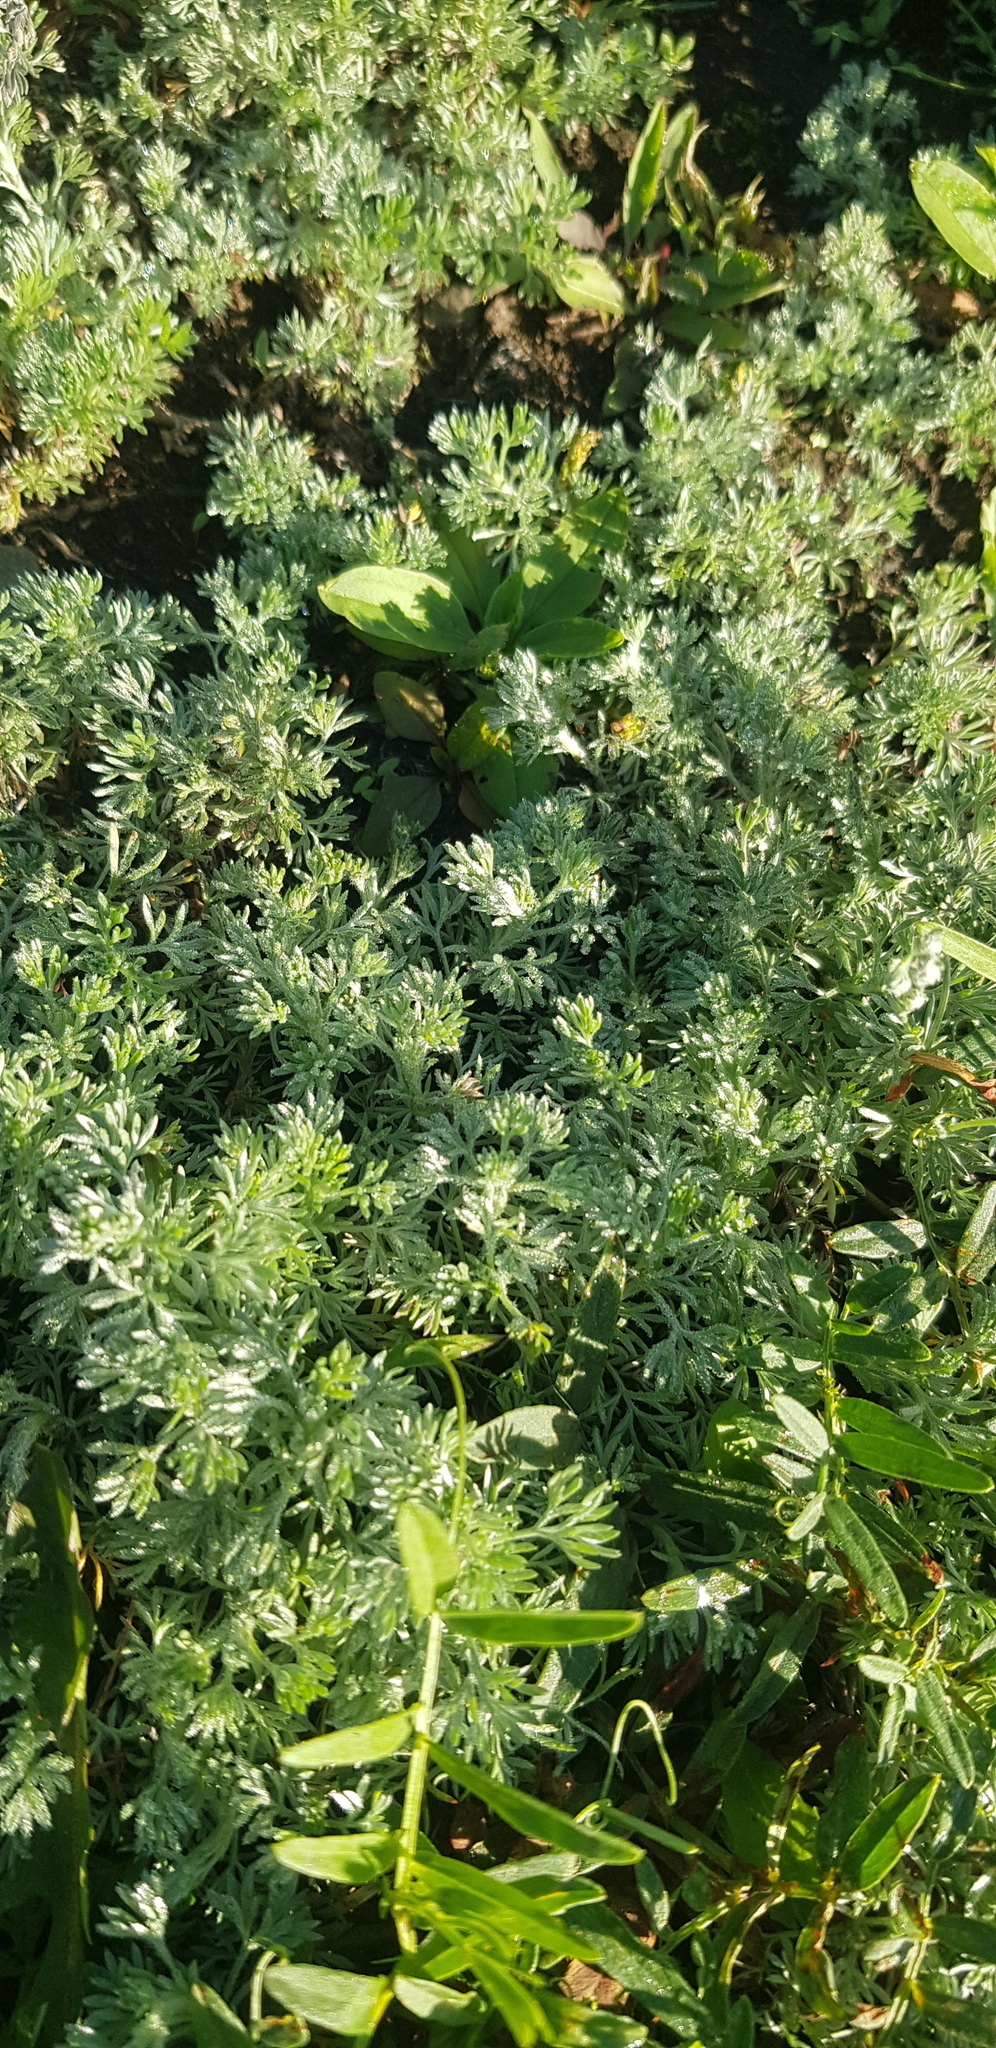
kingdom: Plantae
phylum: Tracheophyta
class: Magnoliopsida
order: Asterales
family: Asteraceae
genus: Artemisia
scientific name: Artemisia frigida
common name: Prairie sagewort
